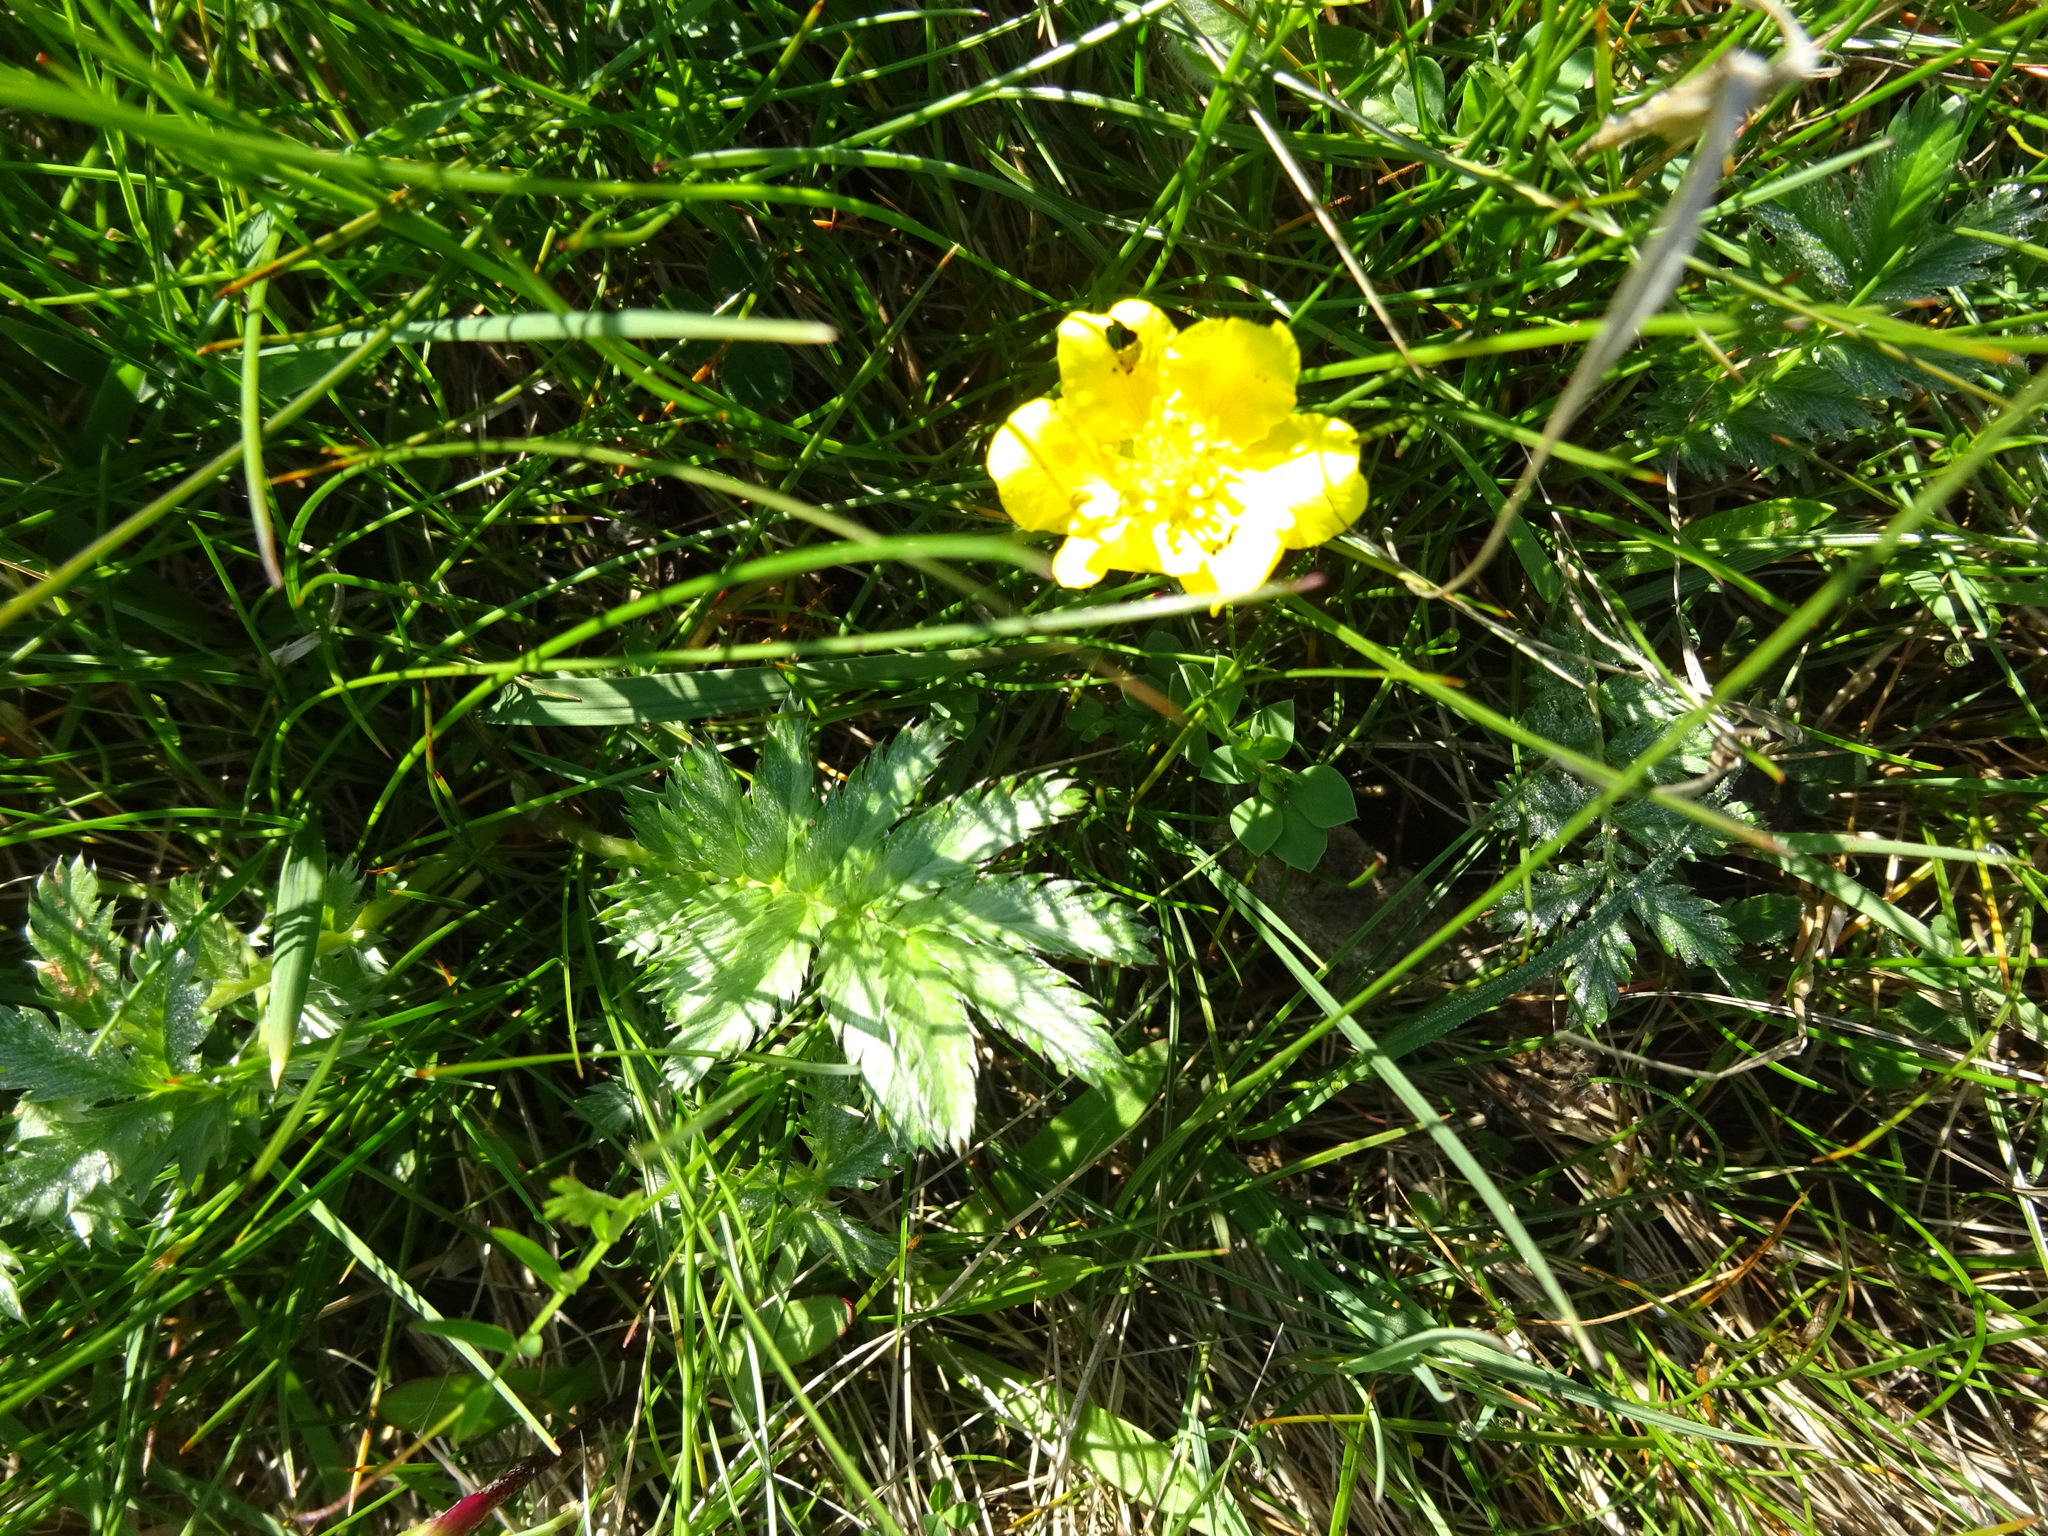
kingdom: Plantae
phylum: Tracheophyta
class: Magnoliopsida
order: Rosales
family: Rosaceae
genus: Argentina
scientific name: Argentina anserina
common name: Common silverweed
